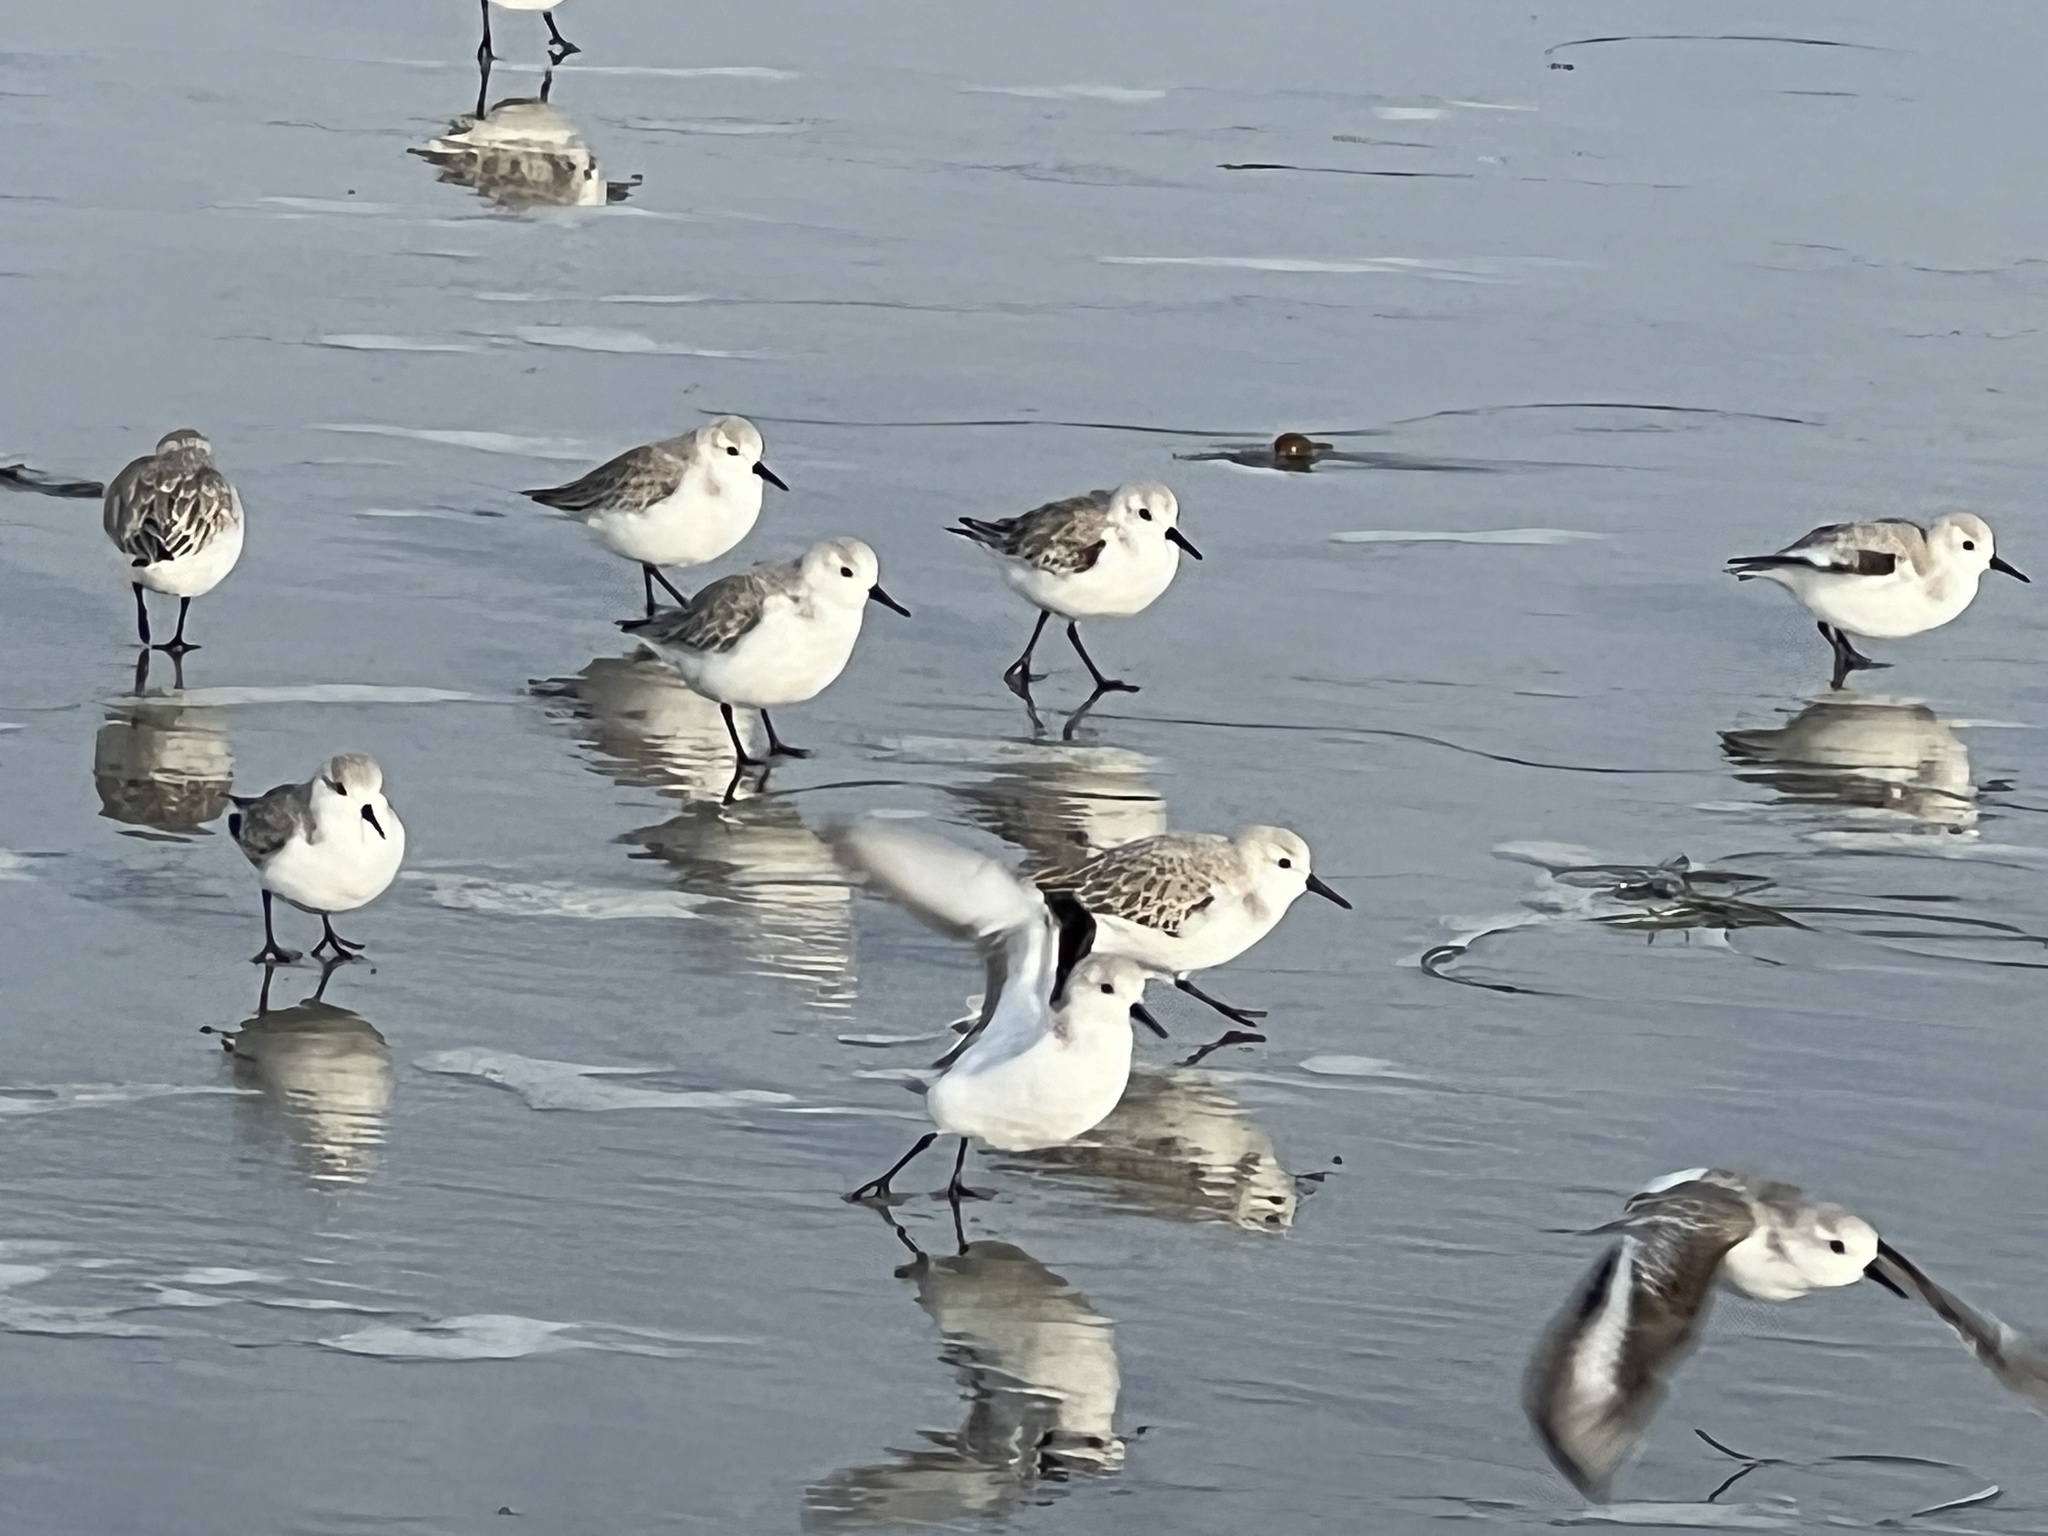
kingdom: Animalia
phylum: Chordata
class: Aves
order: Charadriiformes
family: Scolopacidae
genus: Calidris
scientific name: Calidris alba
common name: Sanderling
